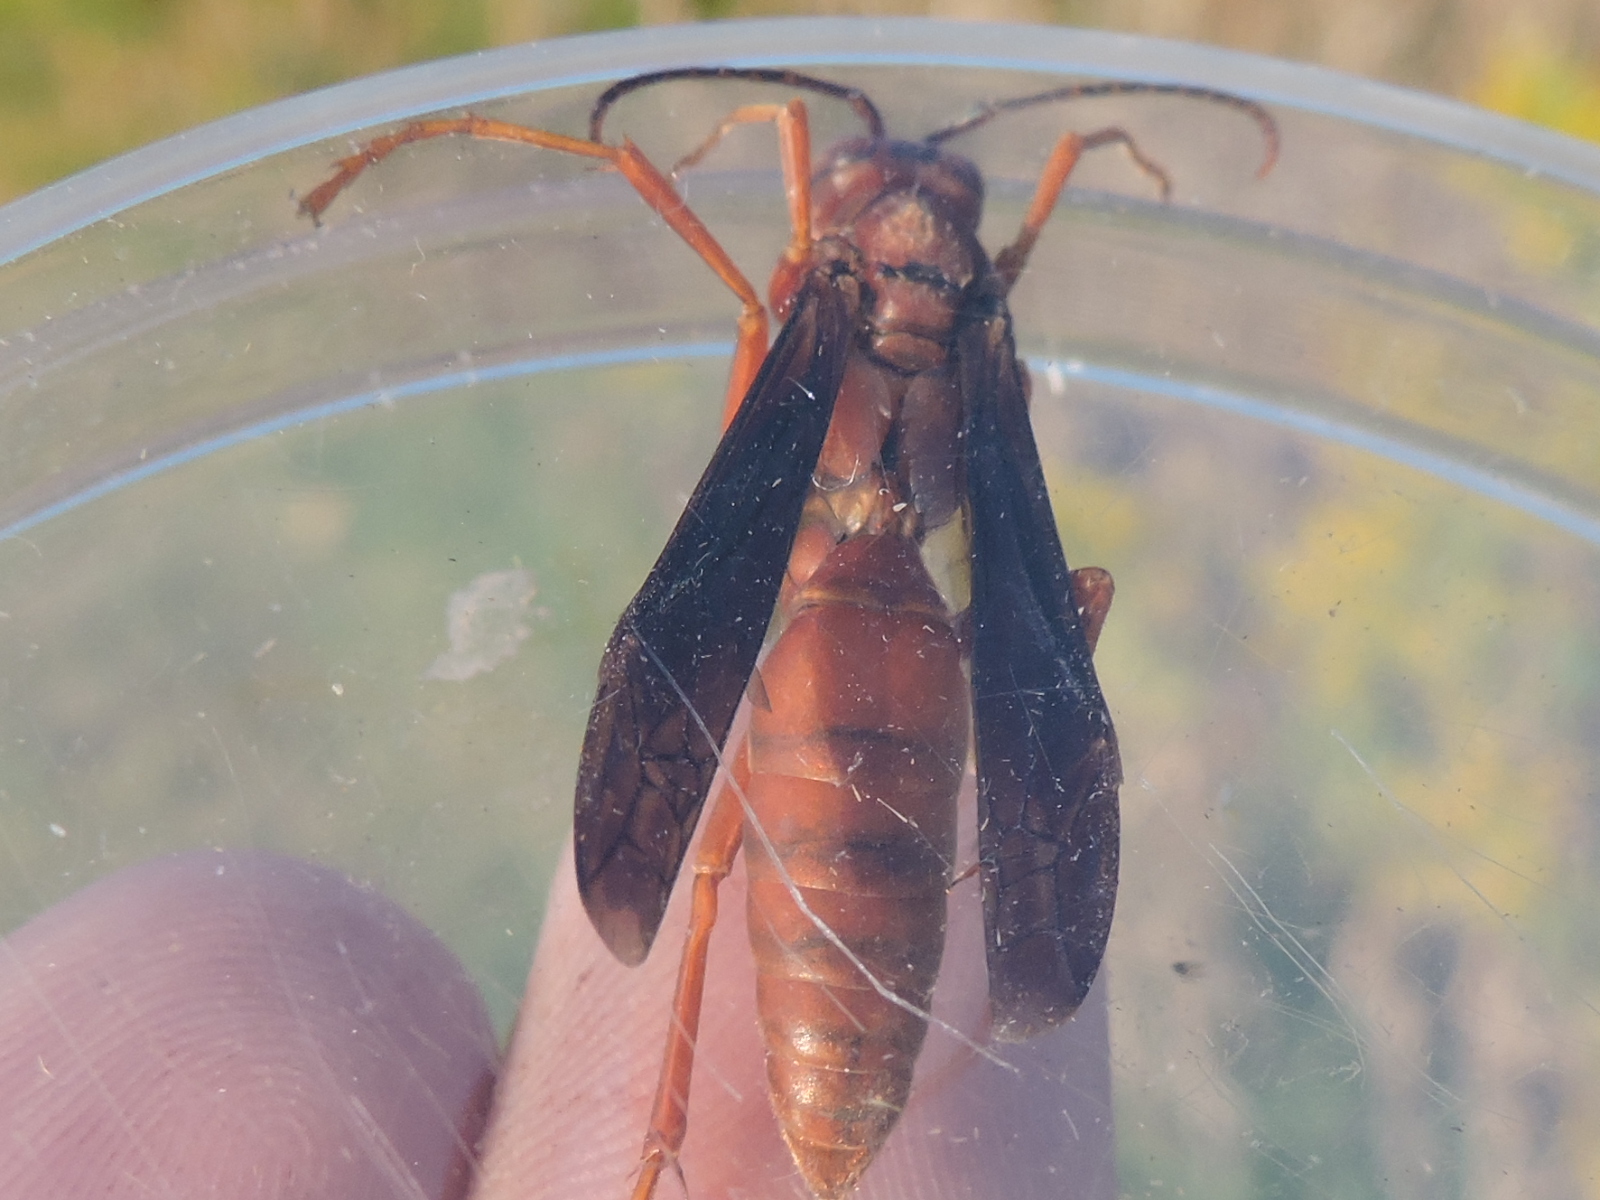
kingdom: Animalia
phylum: Arthropoda
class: Insecta
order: Hymenoptera
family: Vespidae
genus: Fuscopolistes
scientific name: Fuscopolistes
